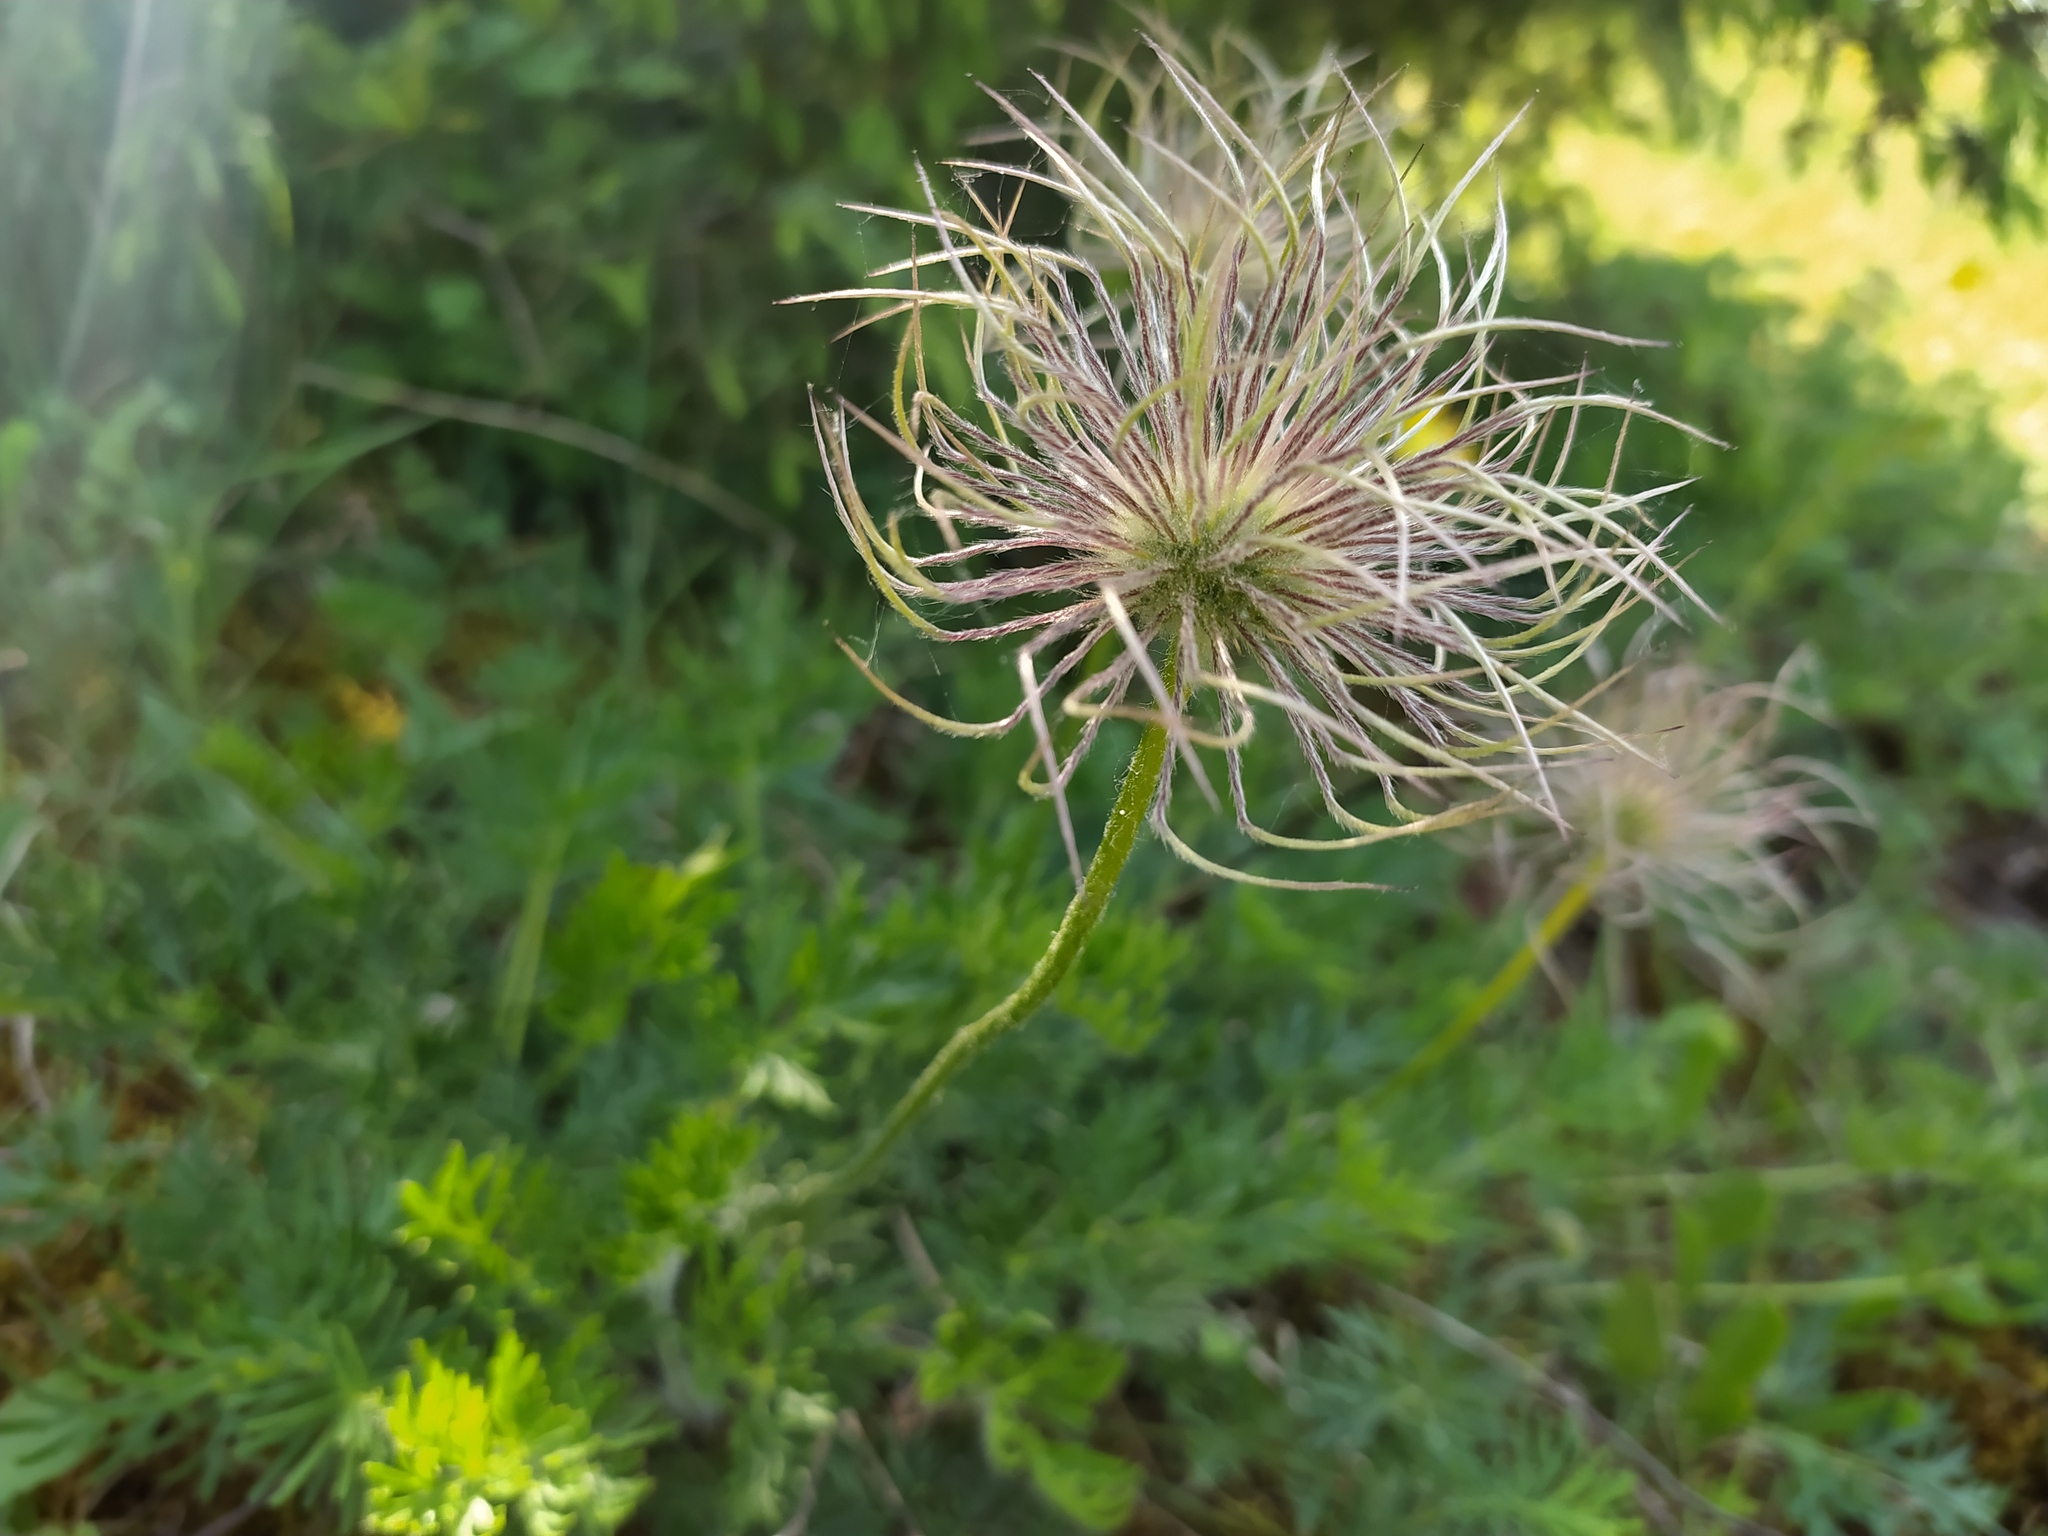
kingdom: Plantae
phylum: Tracheophyta
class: Magnoliopsida
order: Ranunculales
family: Ranunculaceae
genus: Pulsatilla
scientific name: Pulsatilla vulgaris
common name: Pasqueflower
